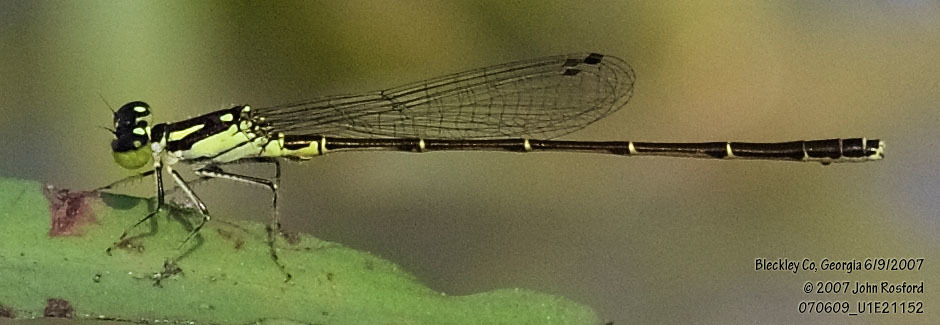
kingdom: Animalia
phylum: Arthropoda
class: Insecta
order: Odonata
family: Coenagrionidae
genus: Ischnura
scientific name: Ischnura posita
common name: Fragile forktail
